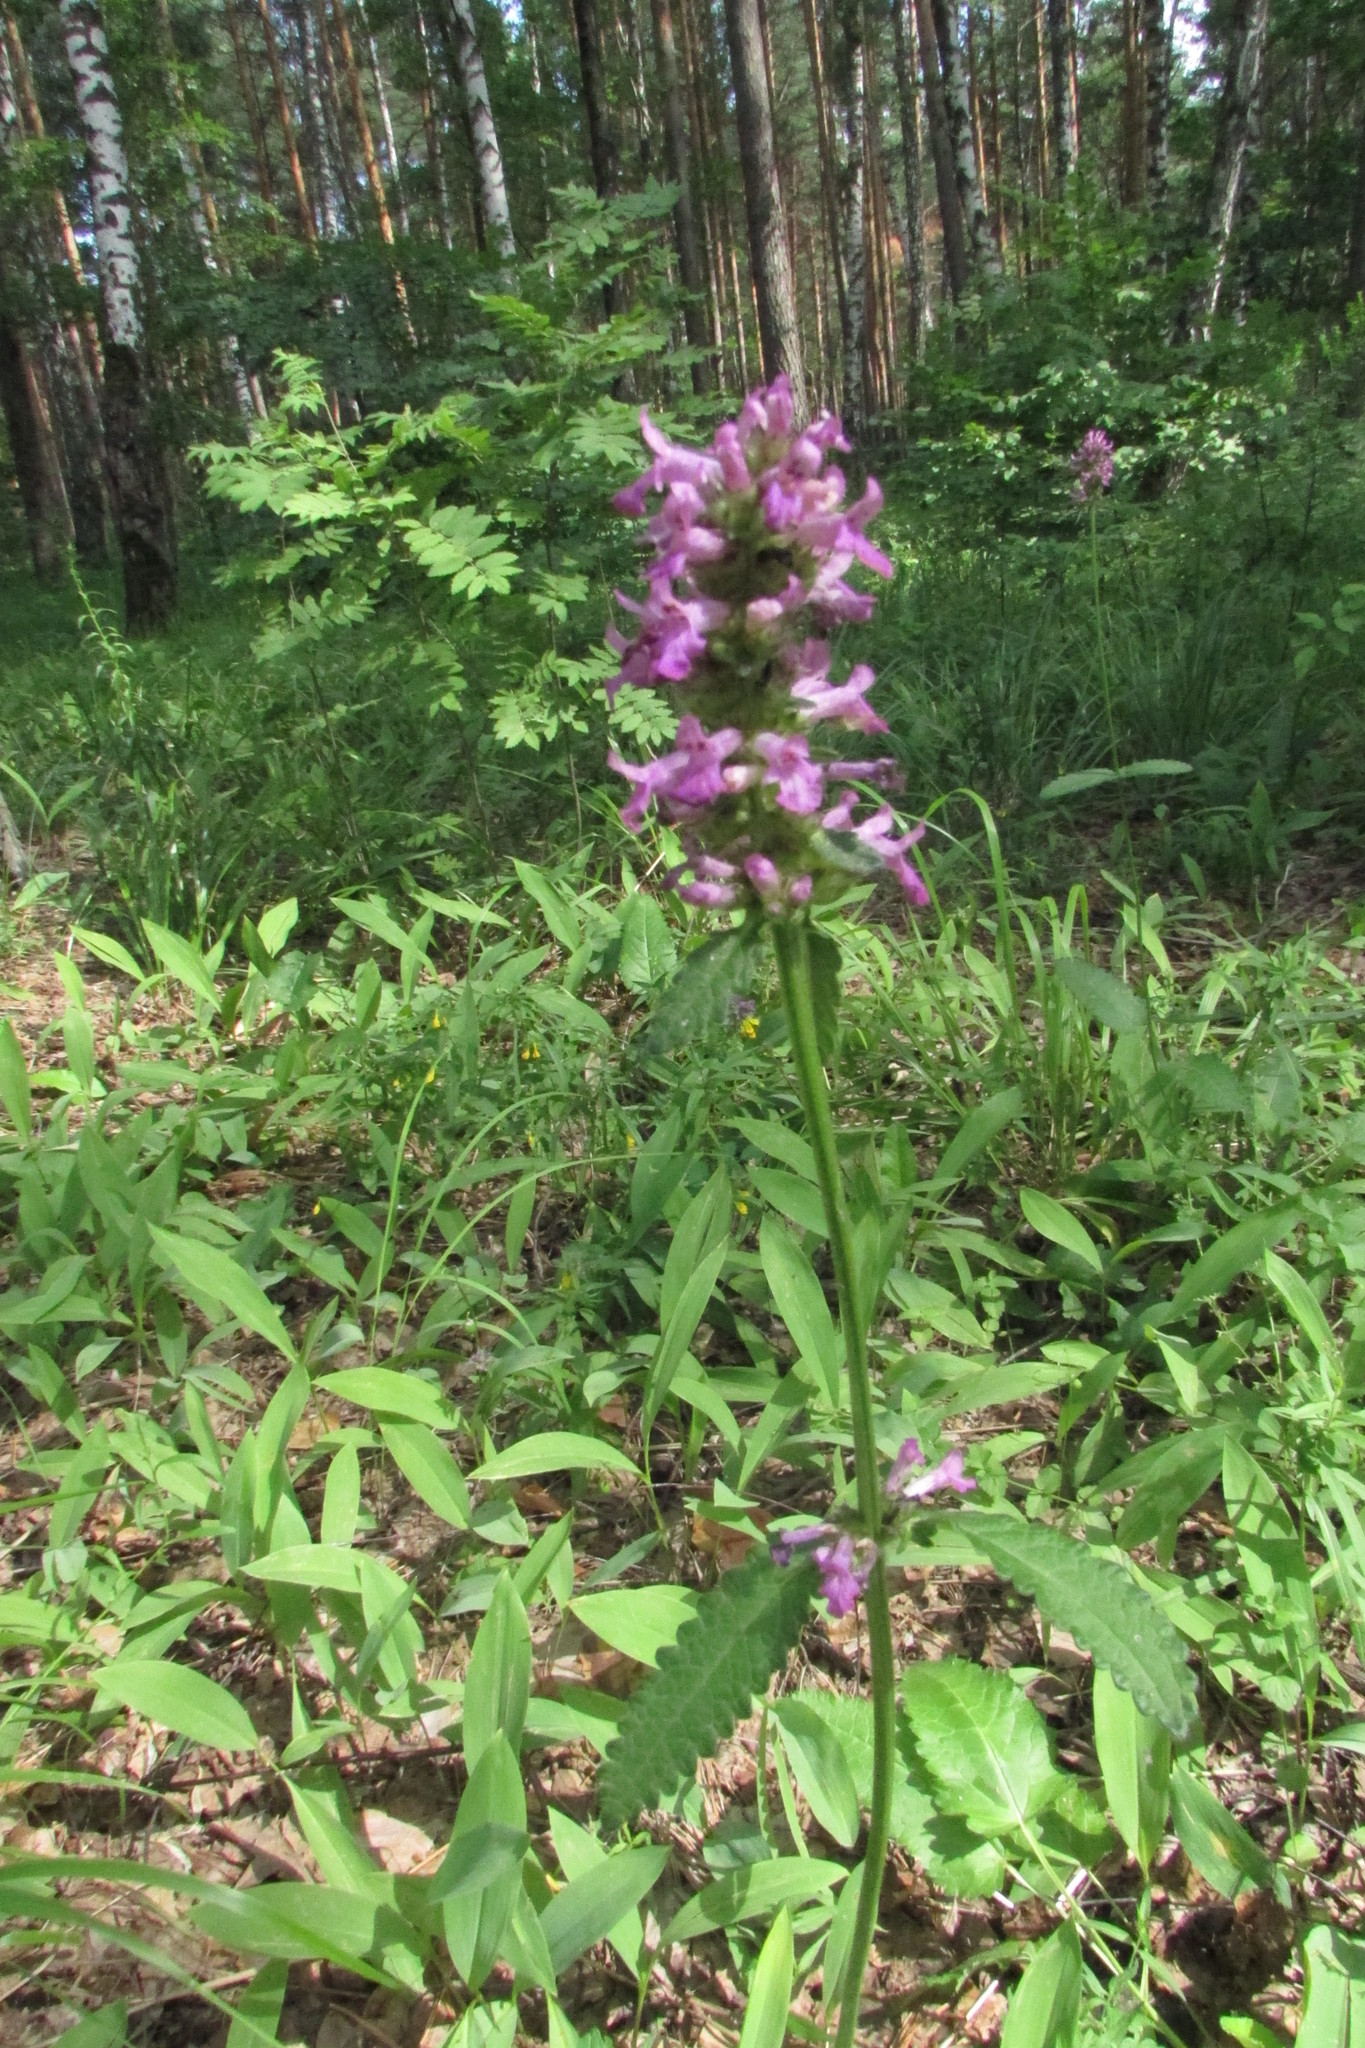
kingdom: Plantae
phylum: Tracheophyta
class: Magnoliopsida
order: Lamiales
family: Lamiaceae
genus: Betonica
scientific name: Betonica officinalis
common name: Bishop's-wort
